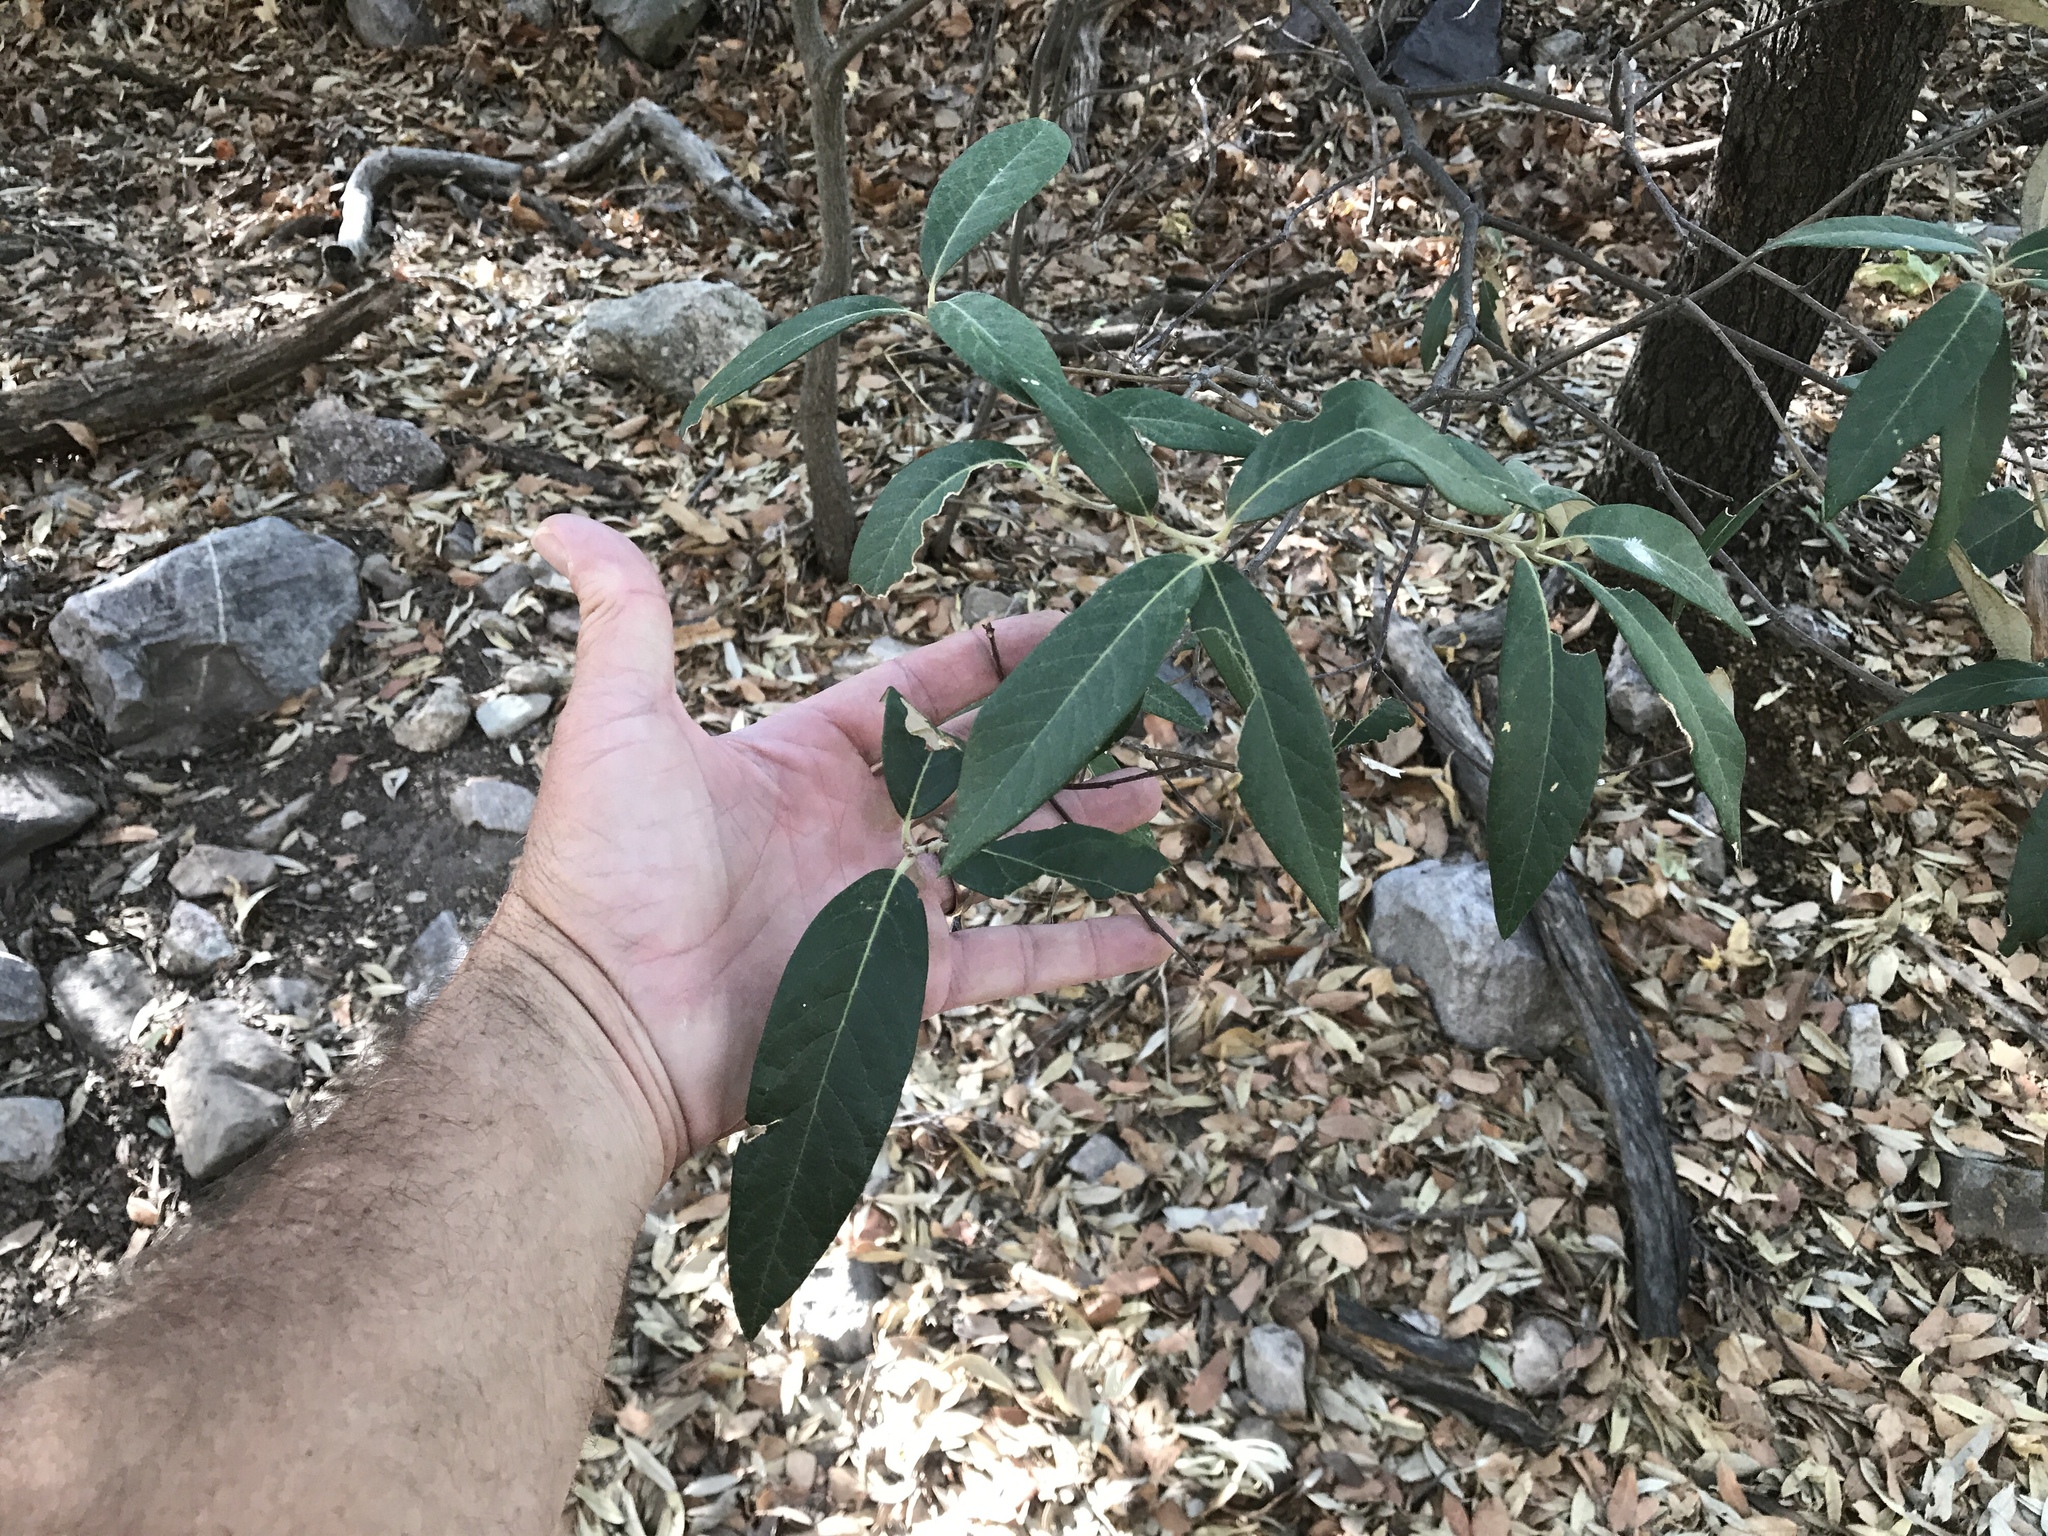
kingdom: Plantae
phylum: Tracheophyta
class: Magnoliopsida
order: Fagales
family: Fagaceae
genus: Quercus
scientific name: Quercus hypoleucoides
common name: Silverleaf oak
